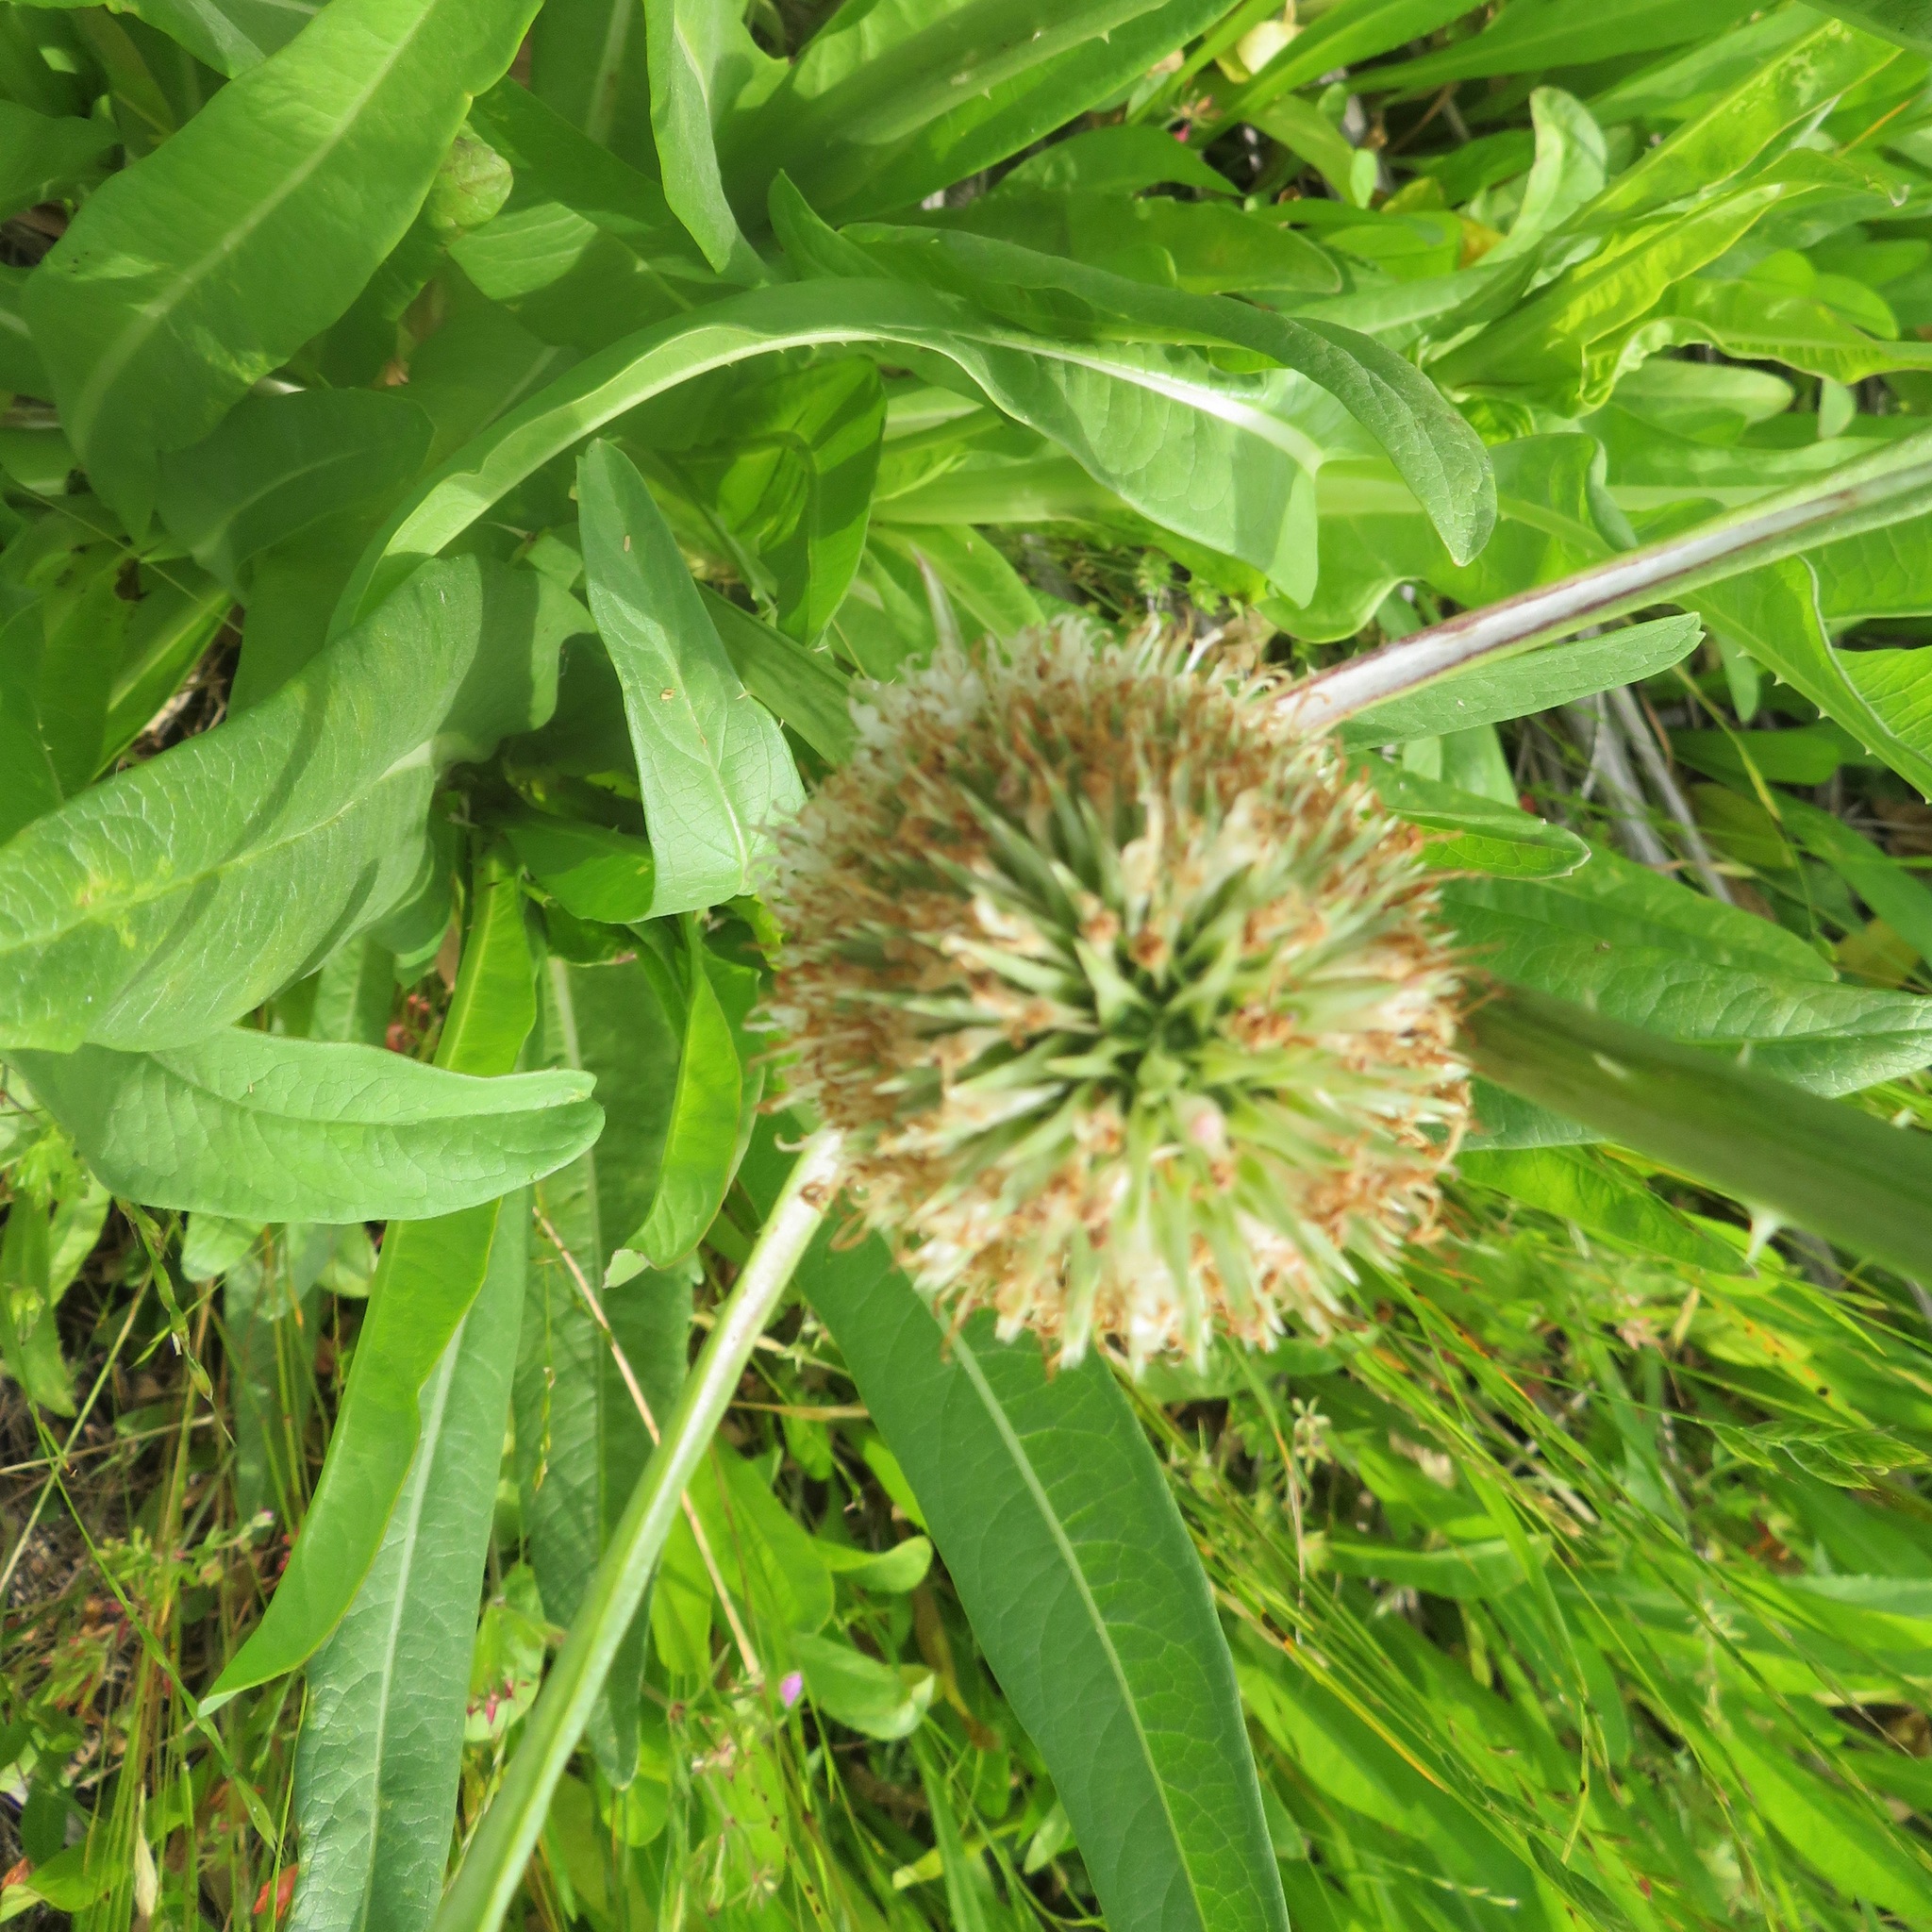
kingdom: Plantae
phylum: Tracheophyta
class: Magnoliopsida
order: Dipsacales
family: Caprifoliaceae
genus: Dipsacus
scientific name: Dipsacus sativus
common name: Fuller's teasel
